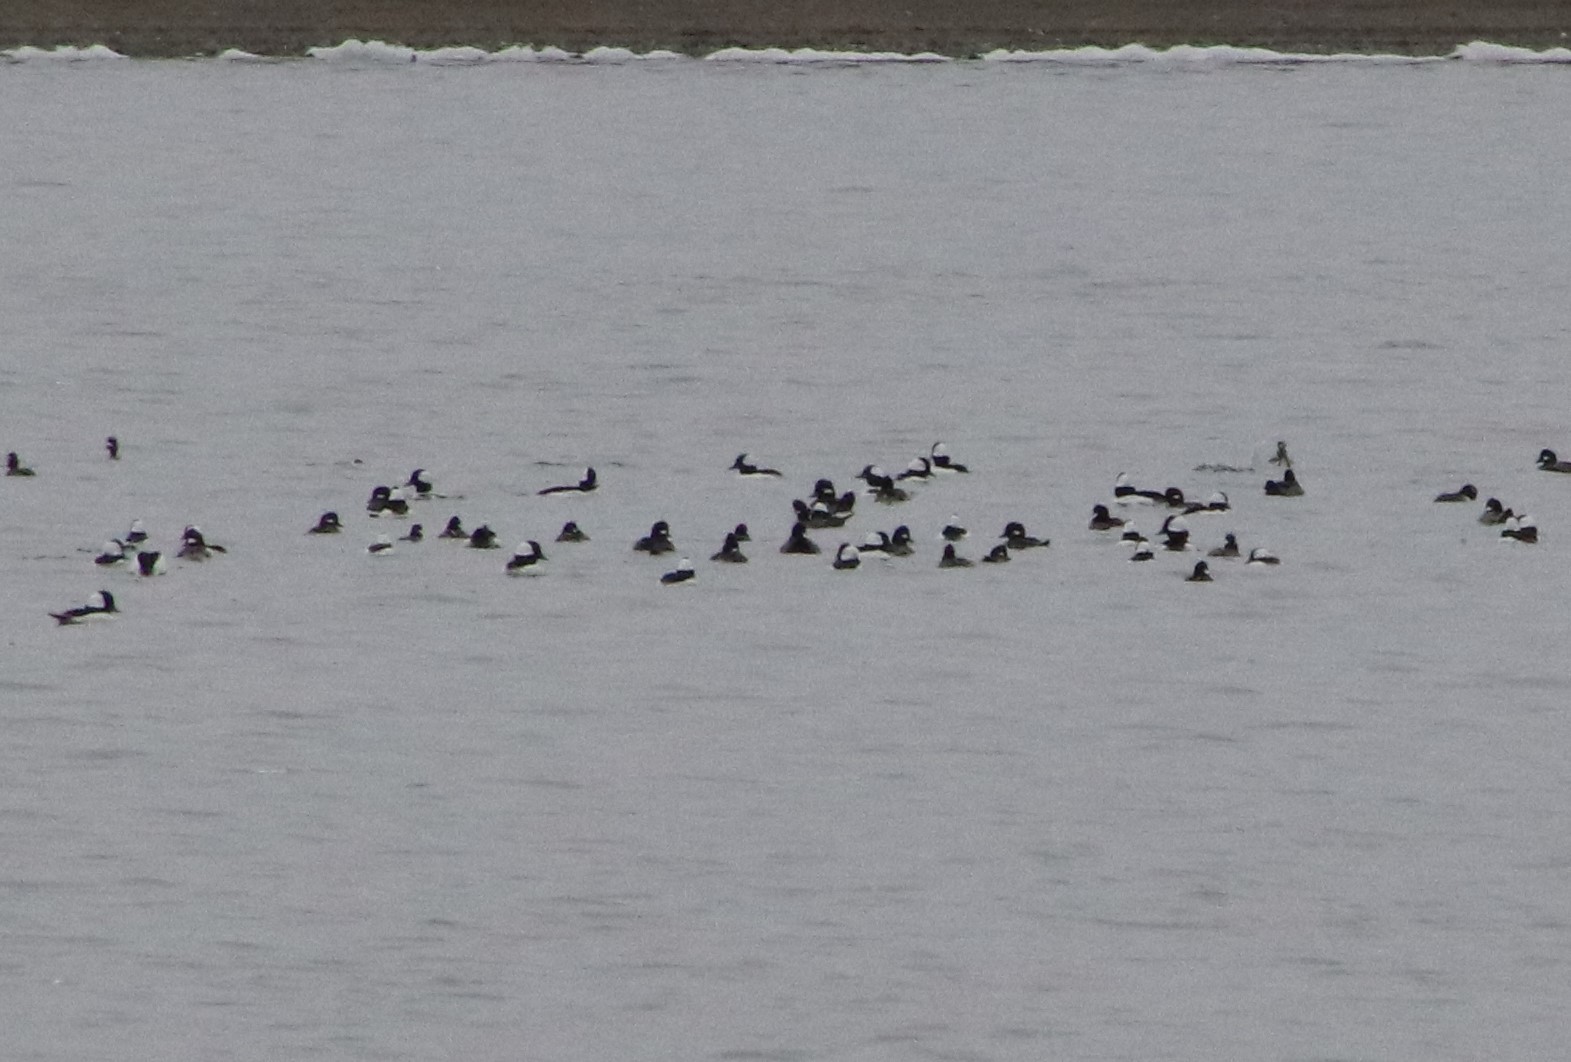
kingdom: Animalia
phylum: Chordata
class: Aves
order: Anseriformes
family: Anatidae
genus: Bucephala
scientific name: Bucephala albeola
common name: Bufflehead
